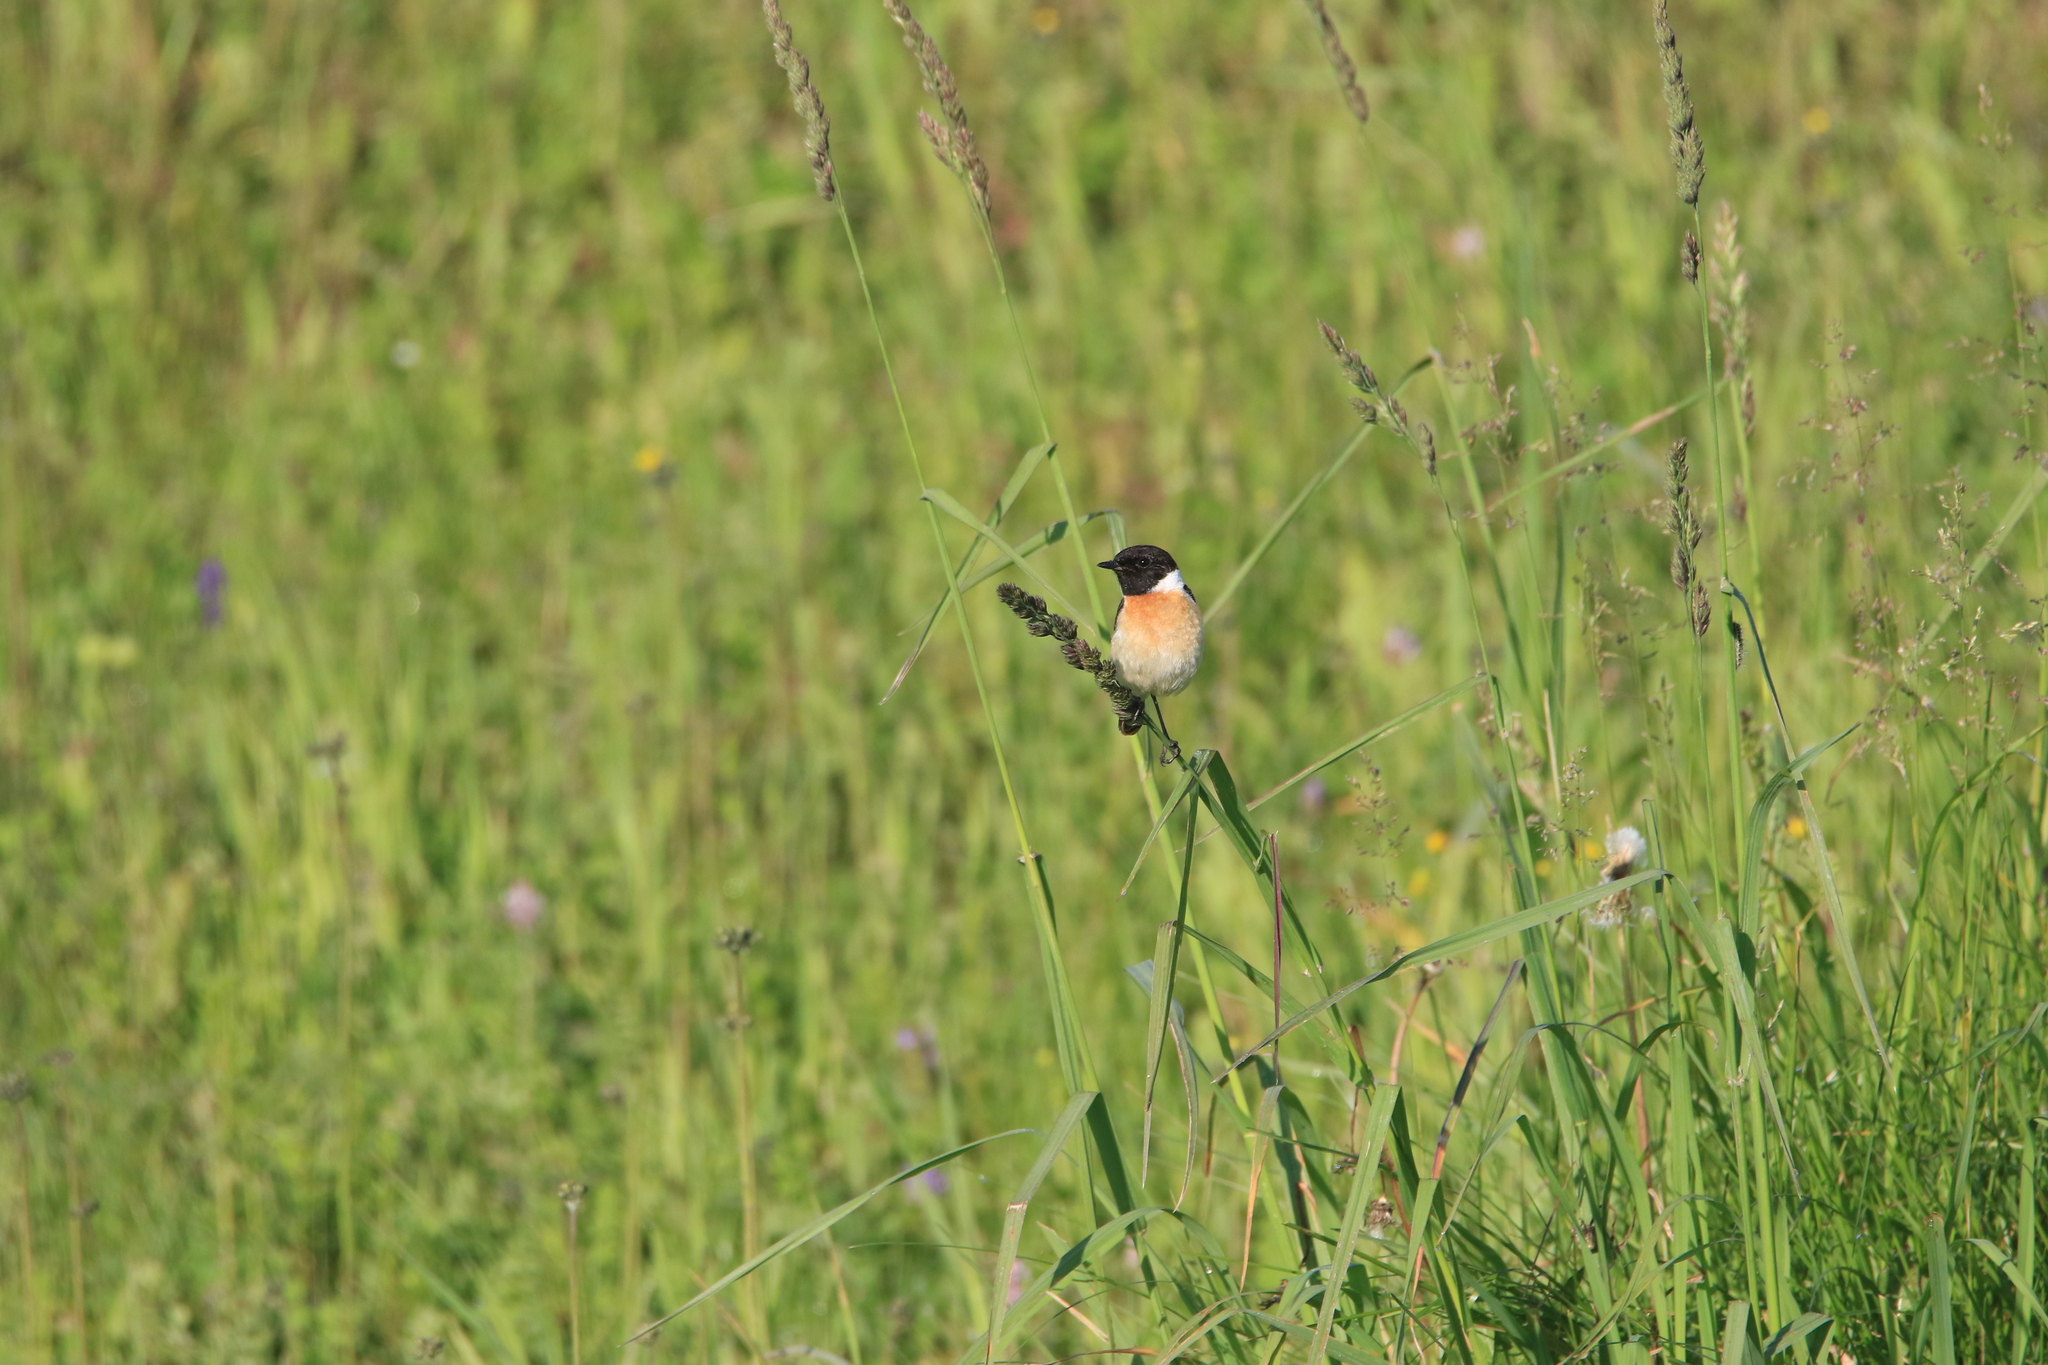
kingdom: Animalia
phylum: Chordata
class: Aves
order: Passeriformes
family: Muscicapidae
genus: Saxicola
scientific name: Saxicola maurus
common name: Siberian stonechat
